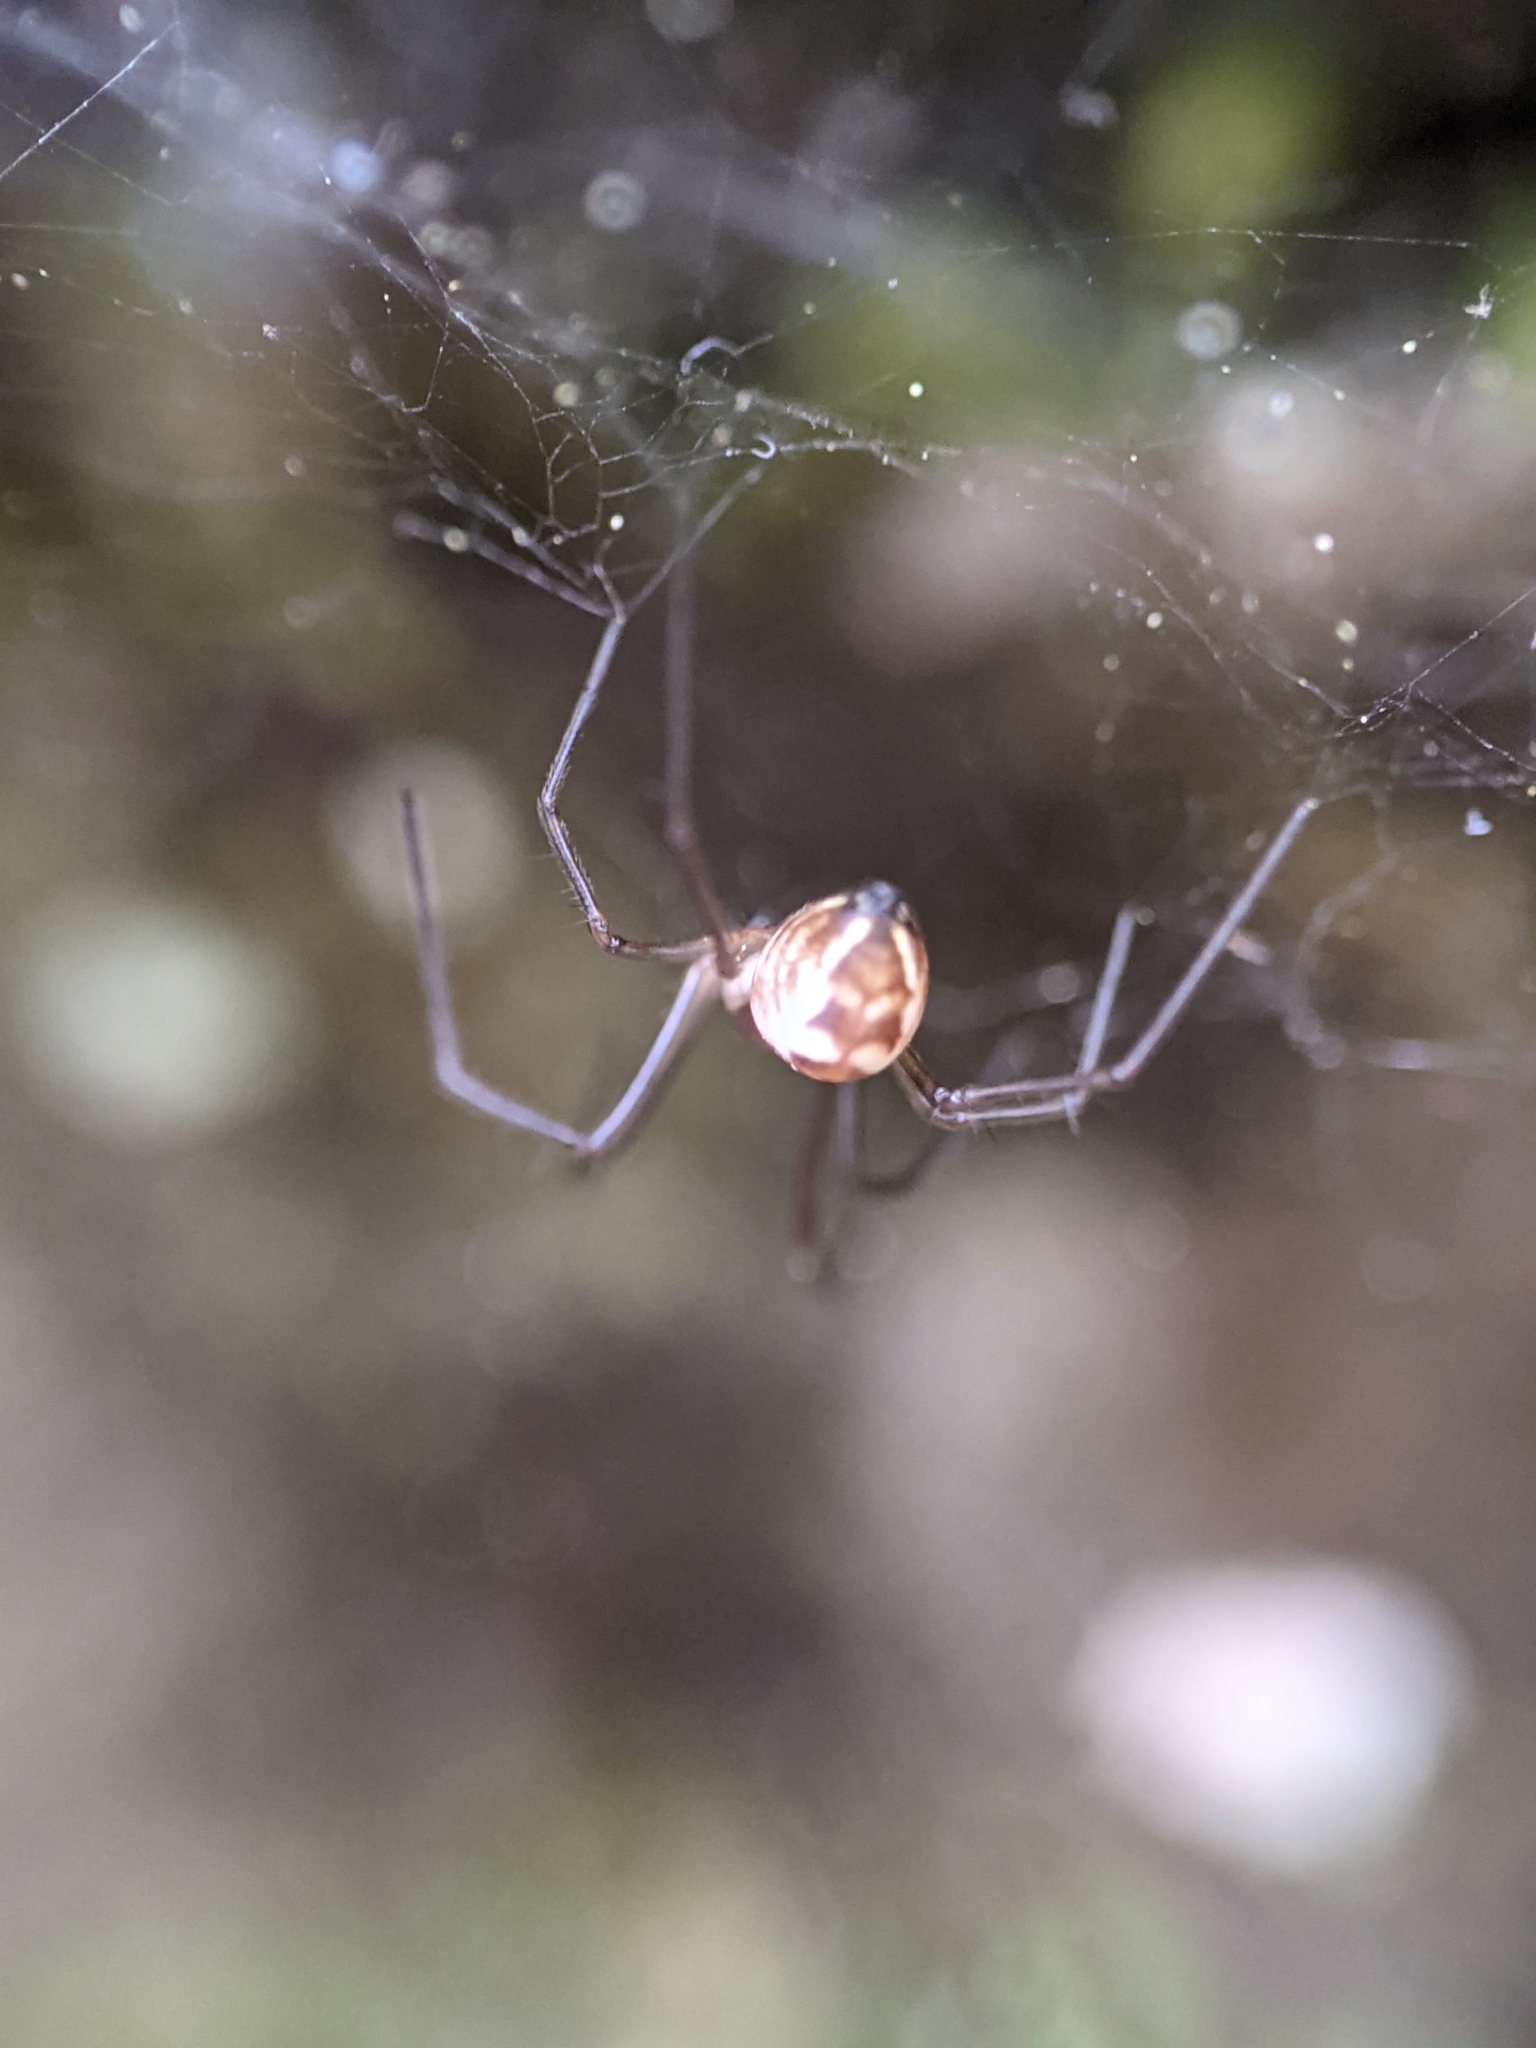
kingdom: Animalia
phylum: Arthropoda
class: Arachnida
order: Araneae
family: Linyphiidae
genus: Neriene
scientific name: Neriene radiata
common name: Filmy dome spider
